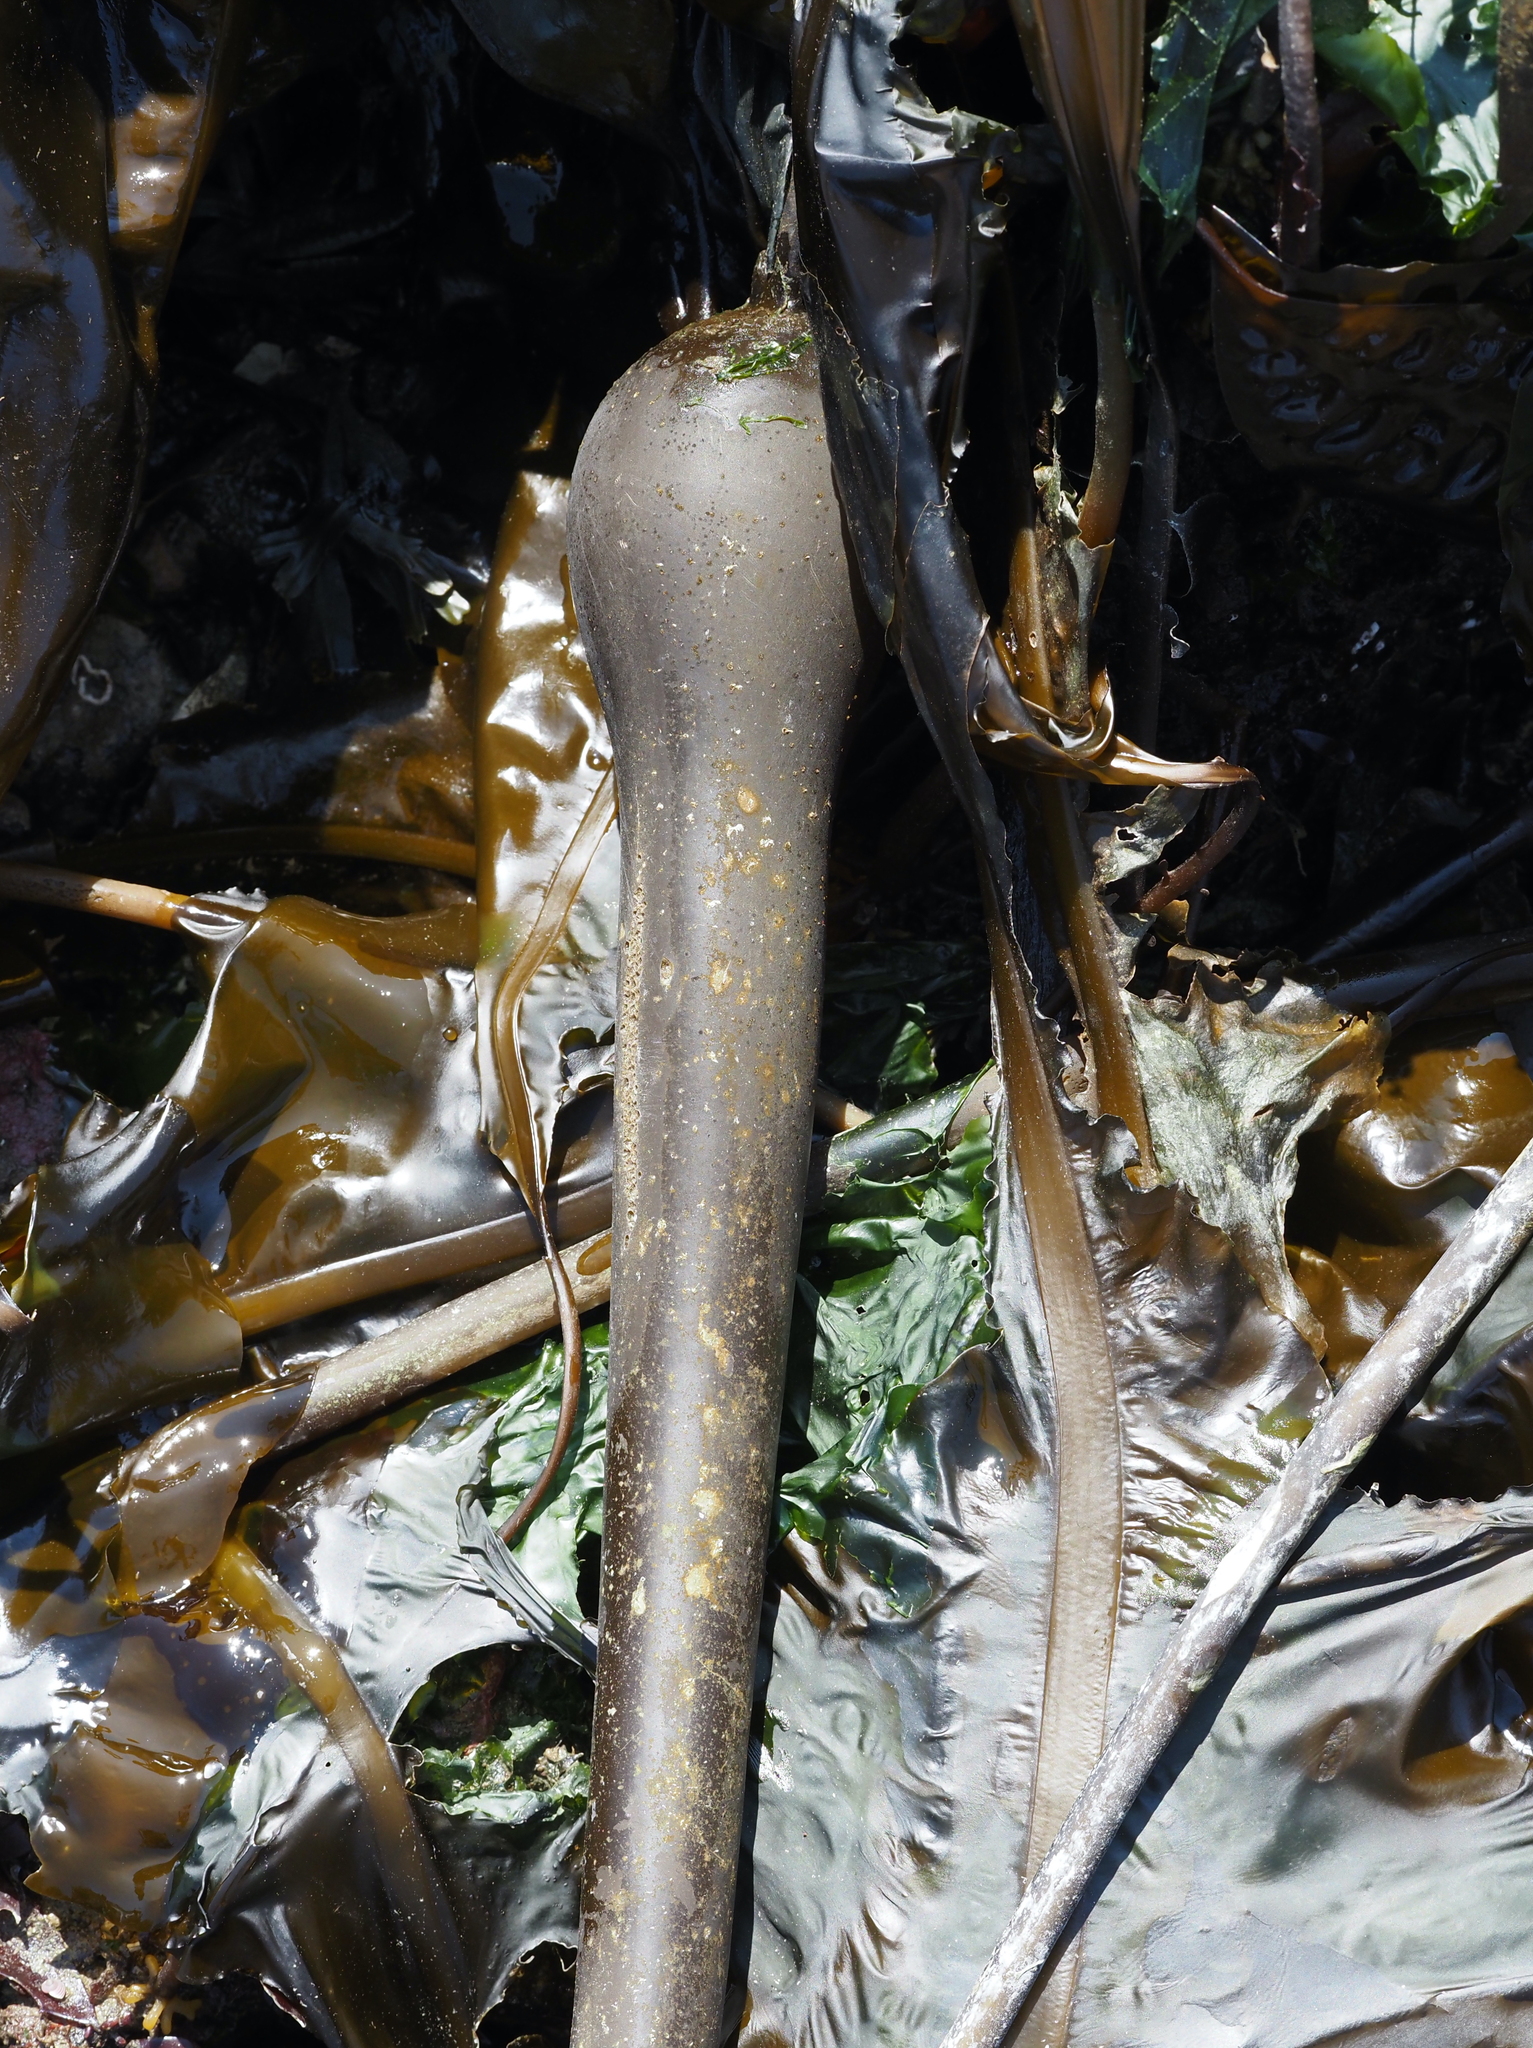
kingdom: Chromista
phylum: Ochrophyta
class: Phaeophyceae
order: Laminariales
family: Laminariaceae
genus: Nereocystis
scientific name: Nereocystis luetkeana
